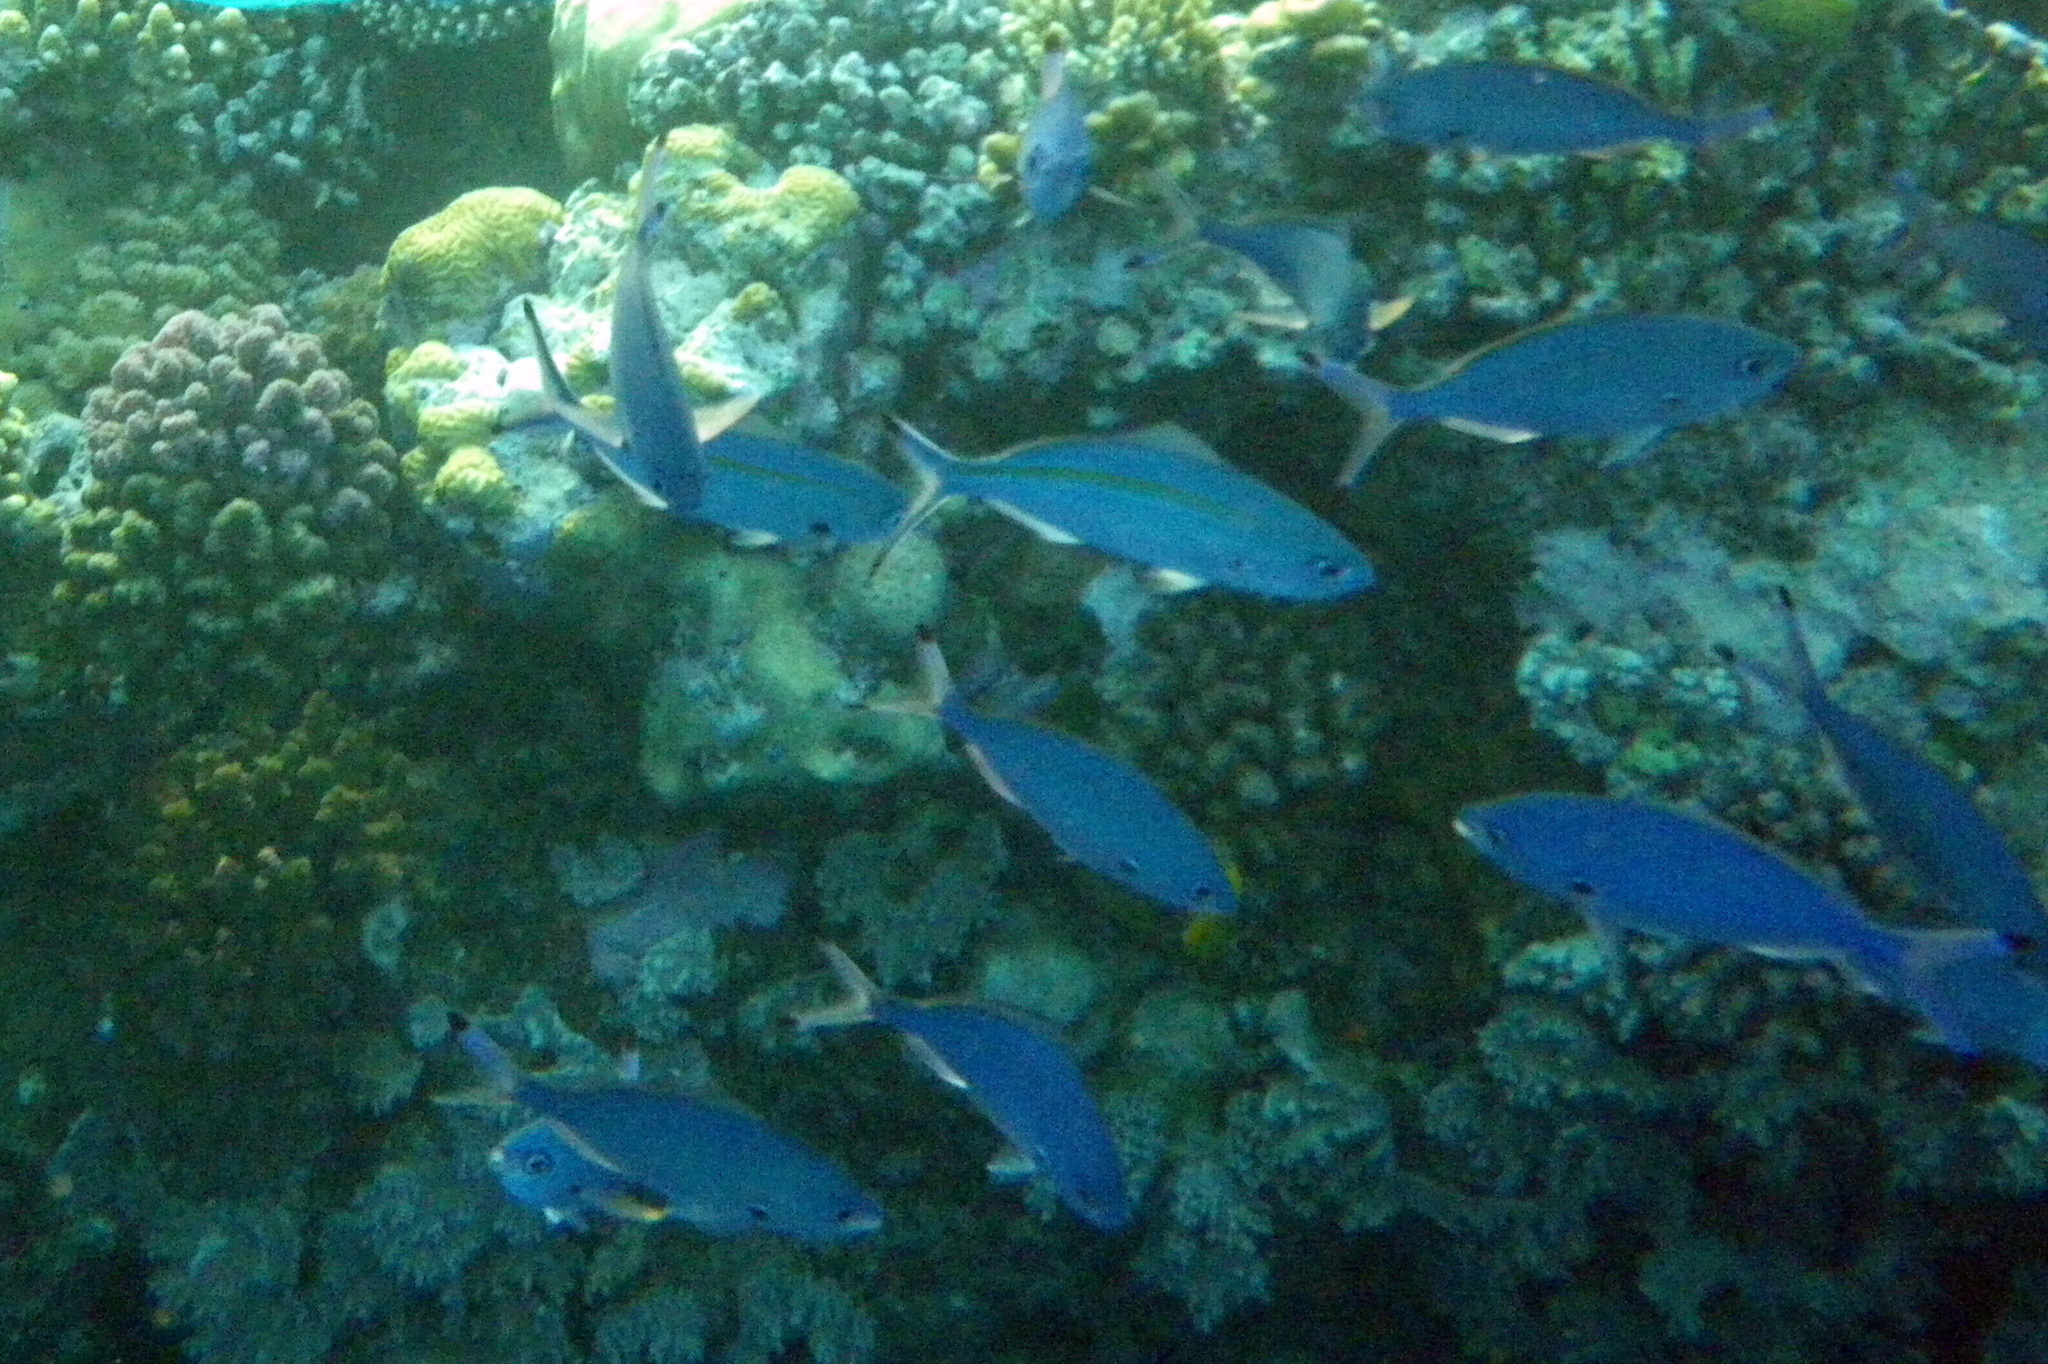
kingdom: Animalia
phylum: Chordata
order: Perciformes
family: Caesionidae
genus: Caesio
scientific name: Caesio varilineata
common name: Variable-lined fusilier
